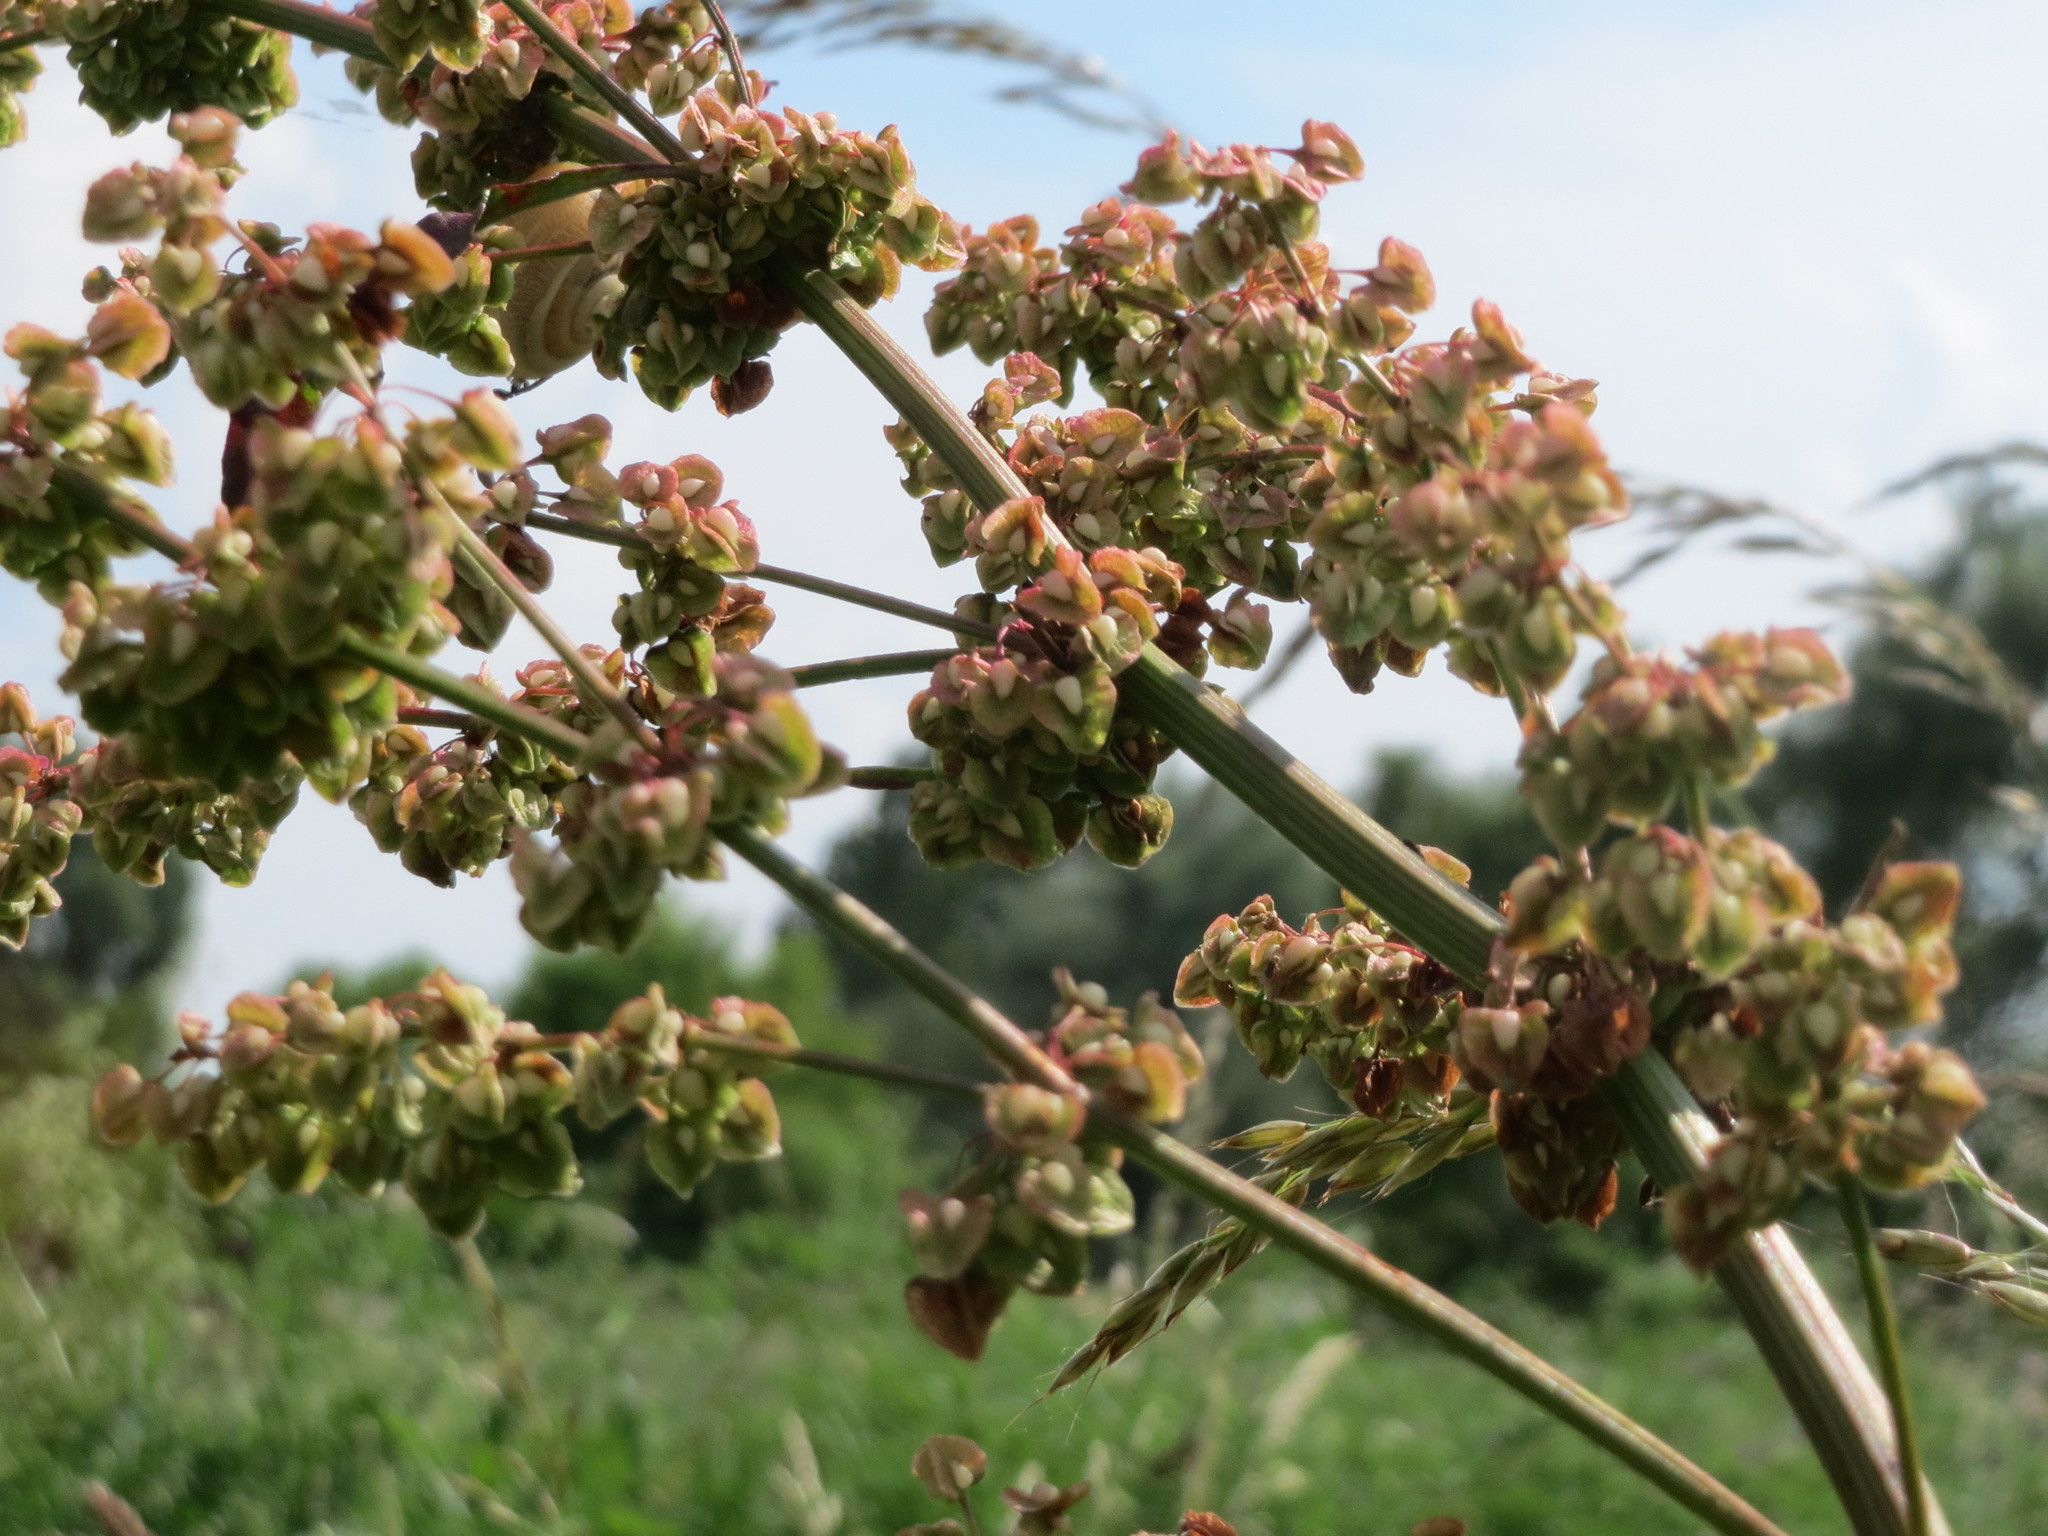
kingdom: Plantae
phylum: Tracheophyta
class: Magnoliopsida
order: Caryophyllales
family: Polygonaceae
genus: Rumex
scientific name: Rumex crispus
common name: Curled dock
